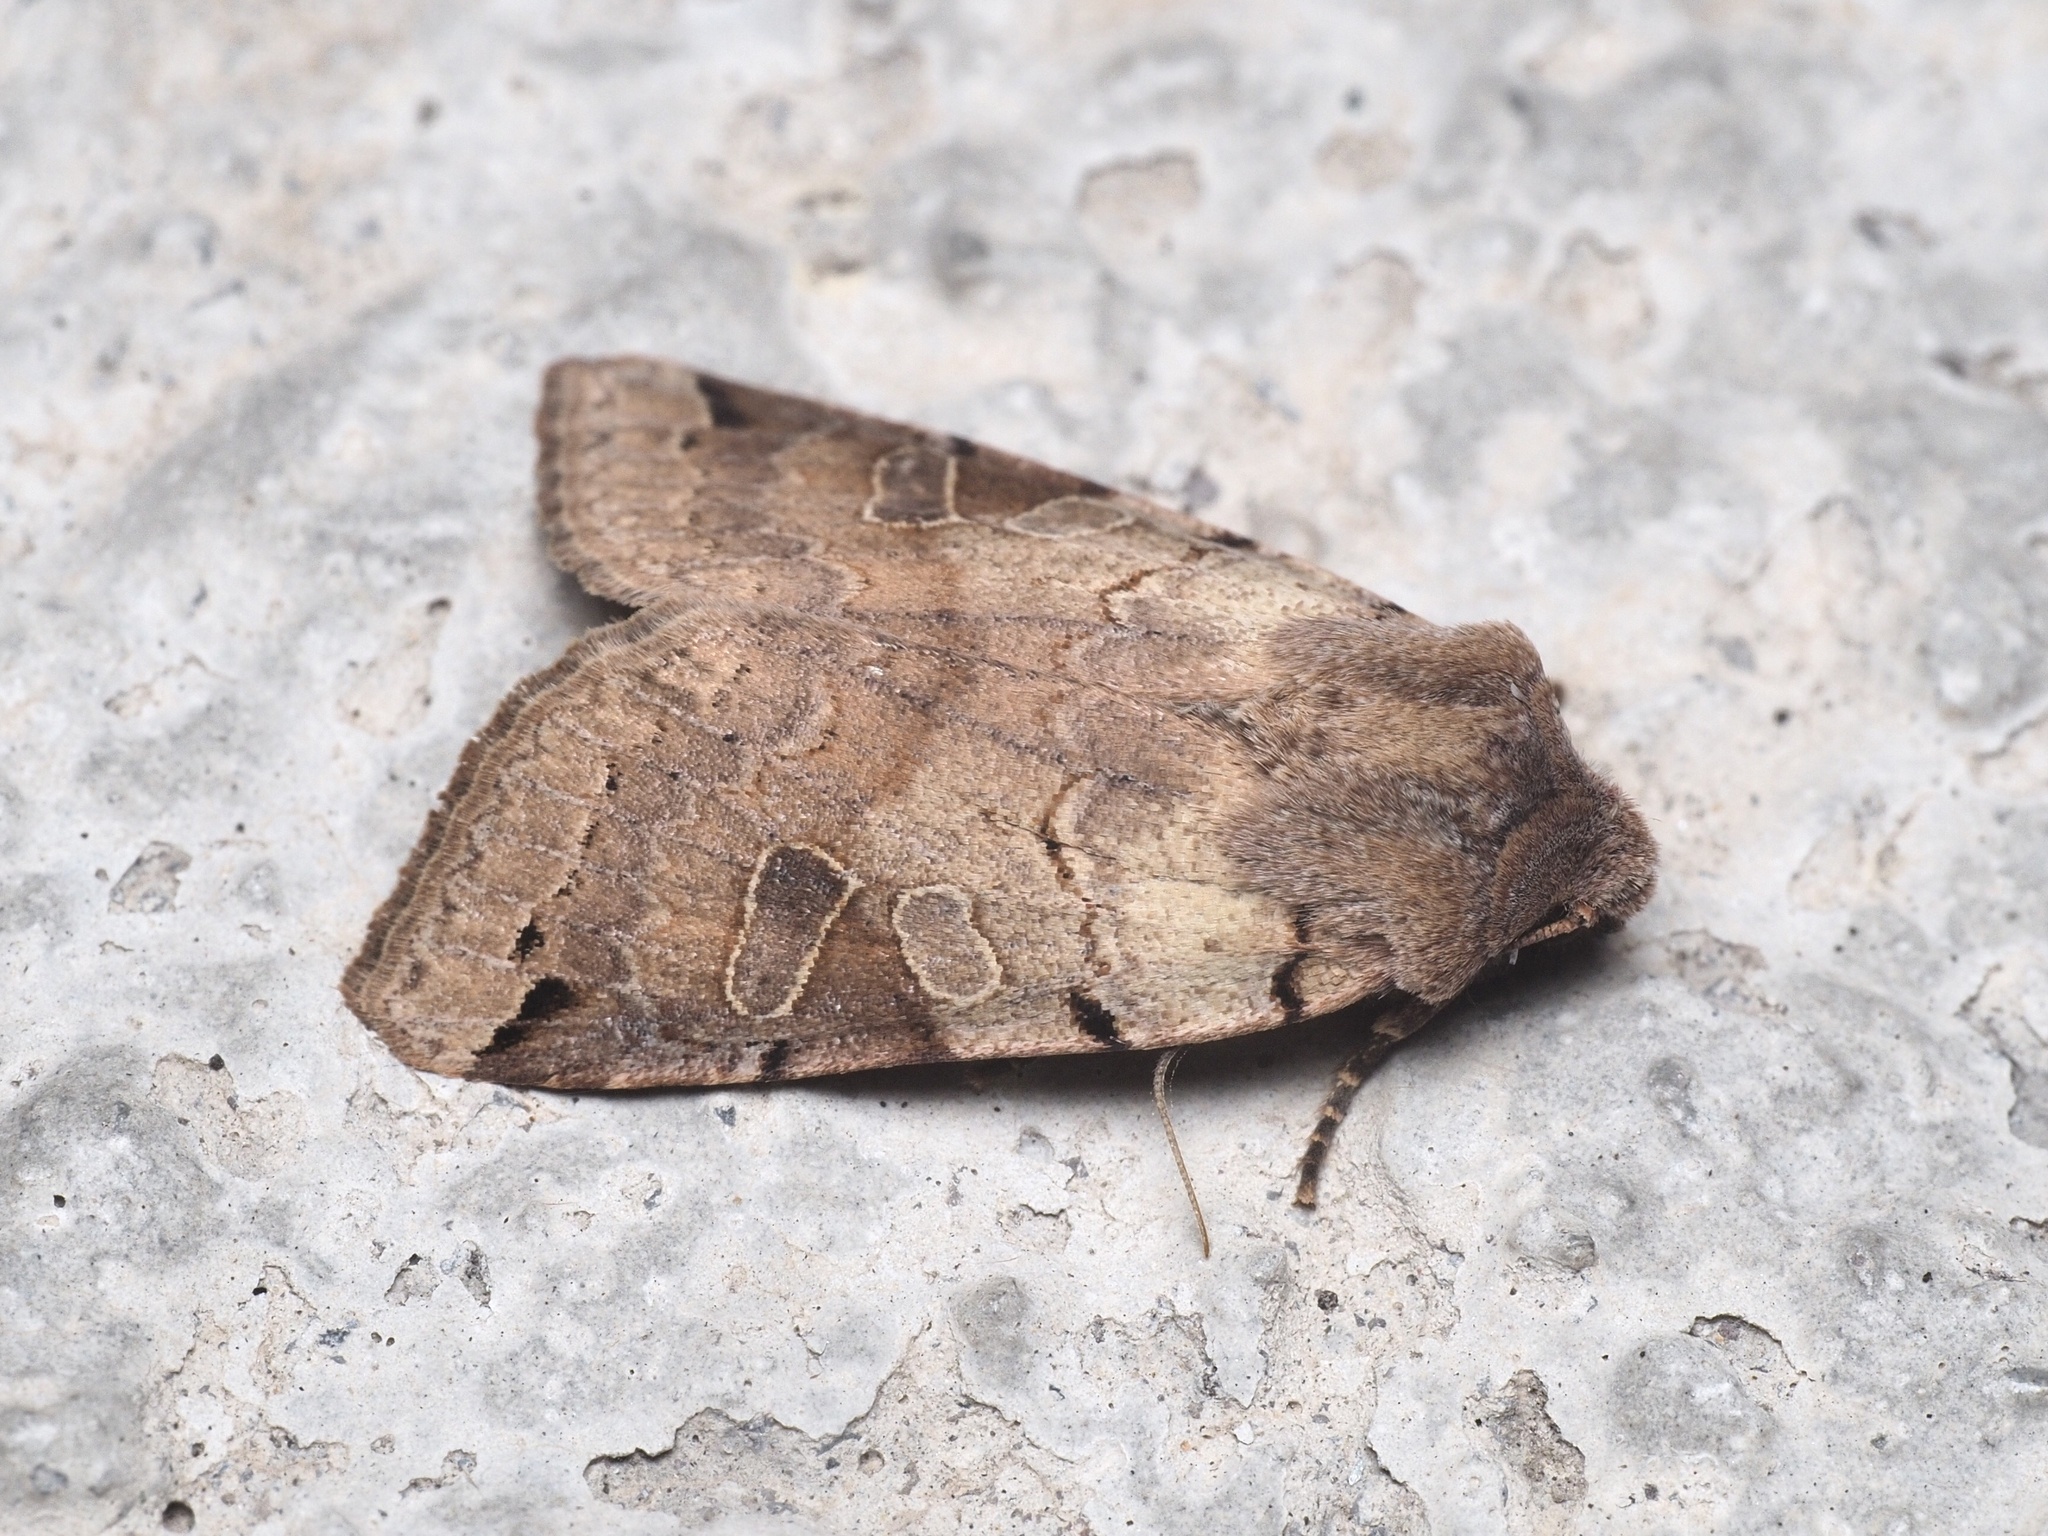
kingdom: Animalia
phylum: Arthropoda
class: Insecta
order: Lepidoptera
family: Noctuidae
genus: Agrochola
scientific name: Agrochola litura
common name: Brown-spot pinion
